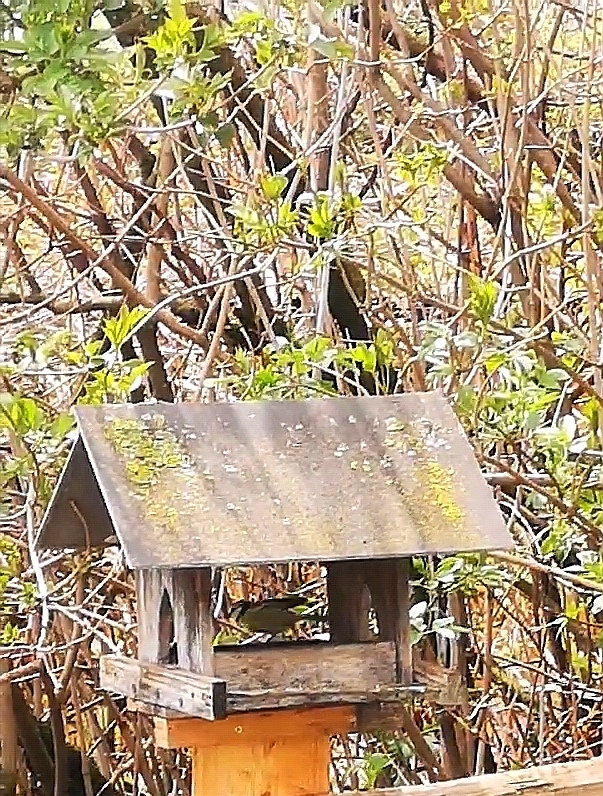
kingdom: Animalia
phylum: Chordata
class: Aves
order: Passeriformes
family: Paridae
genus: Cyanistes
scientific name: Cyanistes caeruleus
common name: Eurasian blue tit
